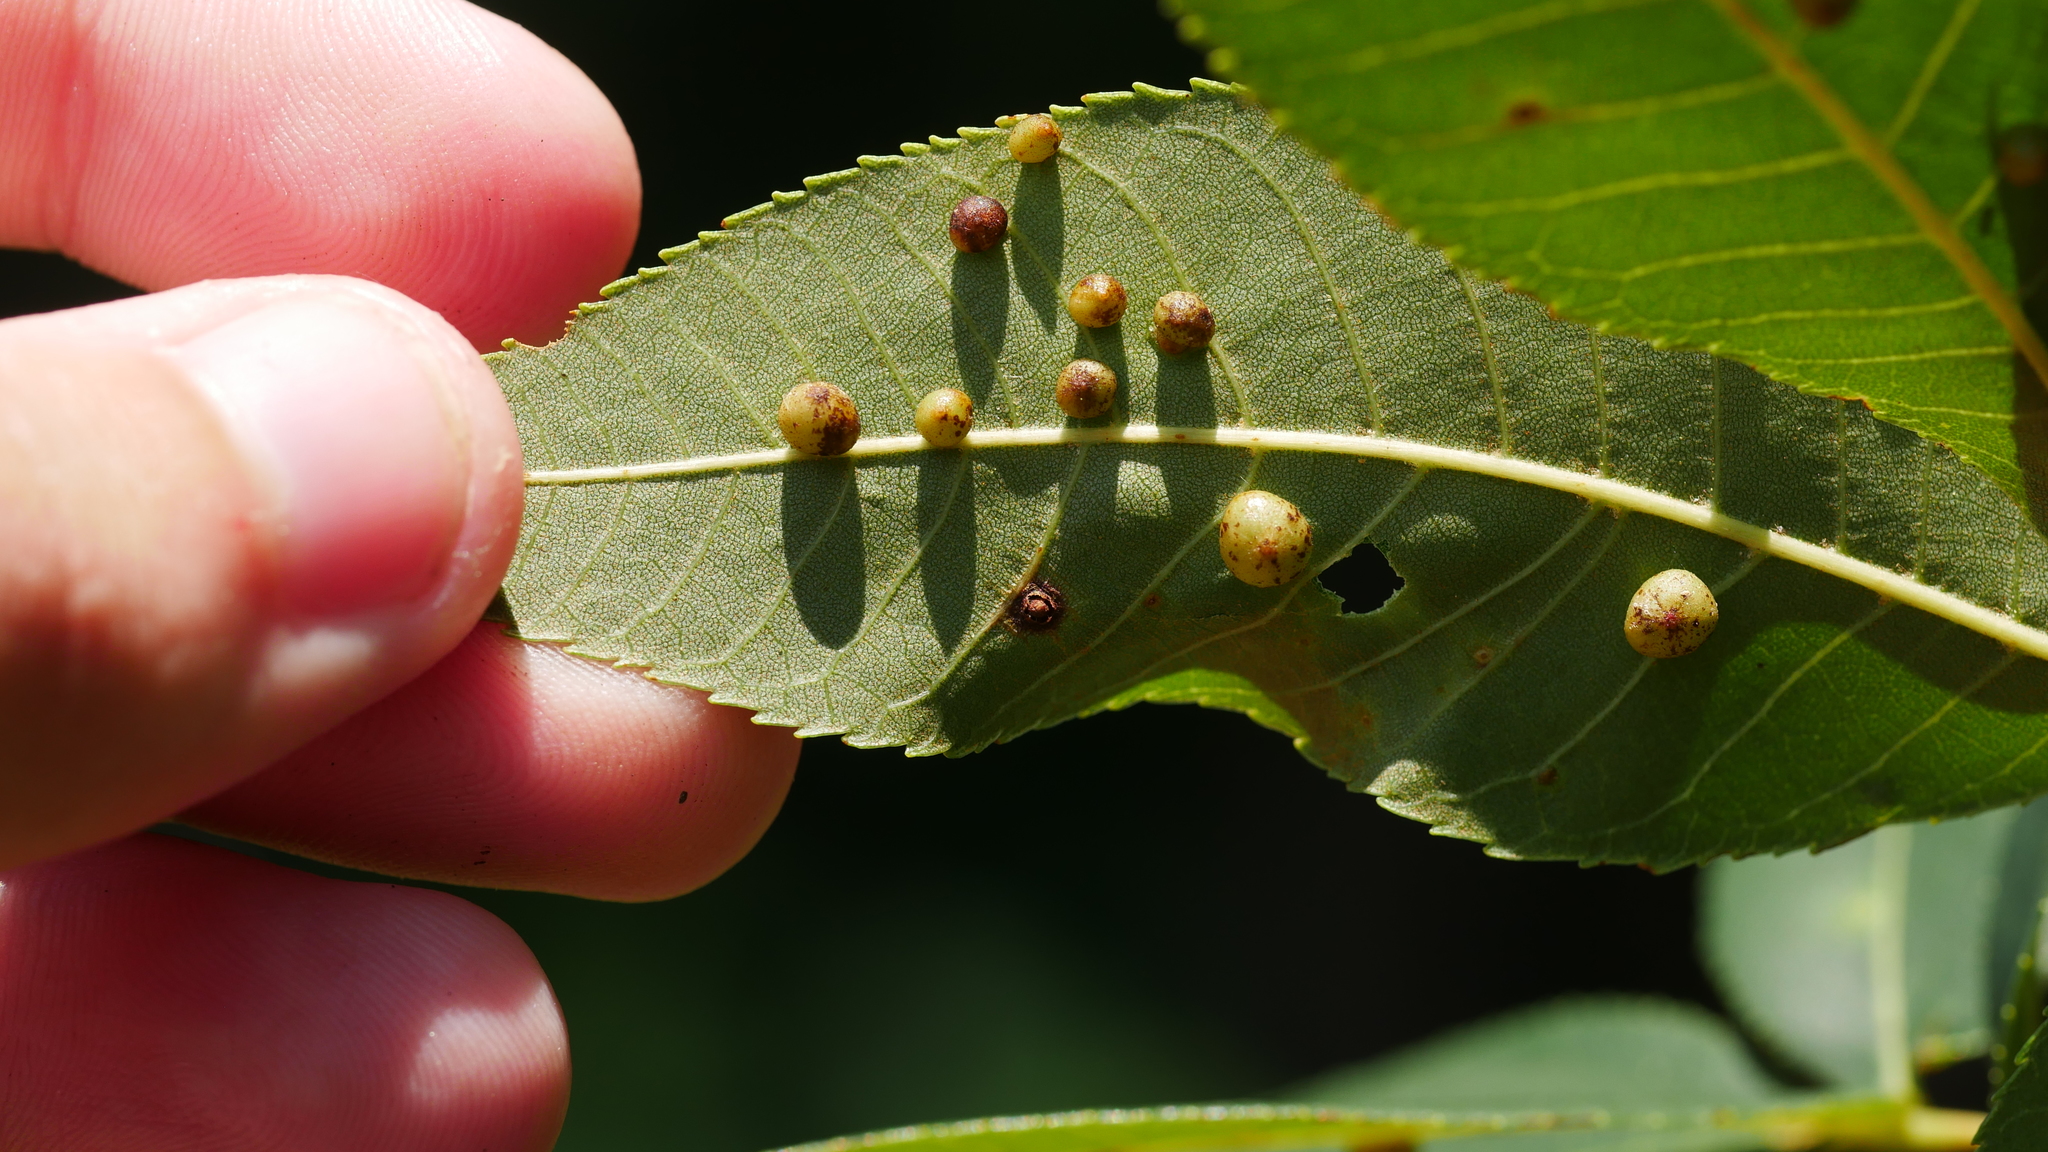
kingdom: Animalia
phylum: Arthropoda
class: Insecta
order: Diptera
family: Cecidomyiidae
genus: Caryomyia
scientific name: Caryomyia caryae
